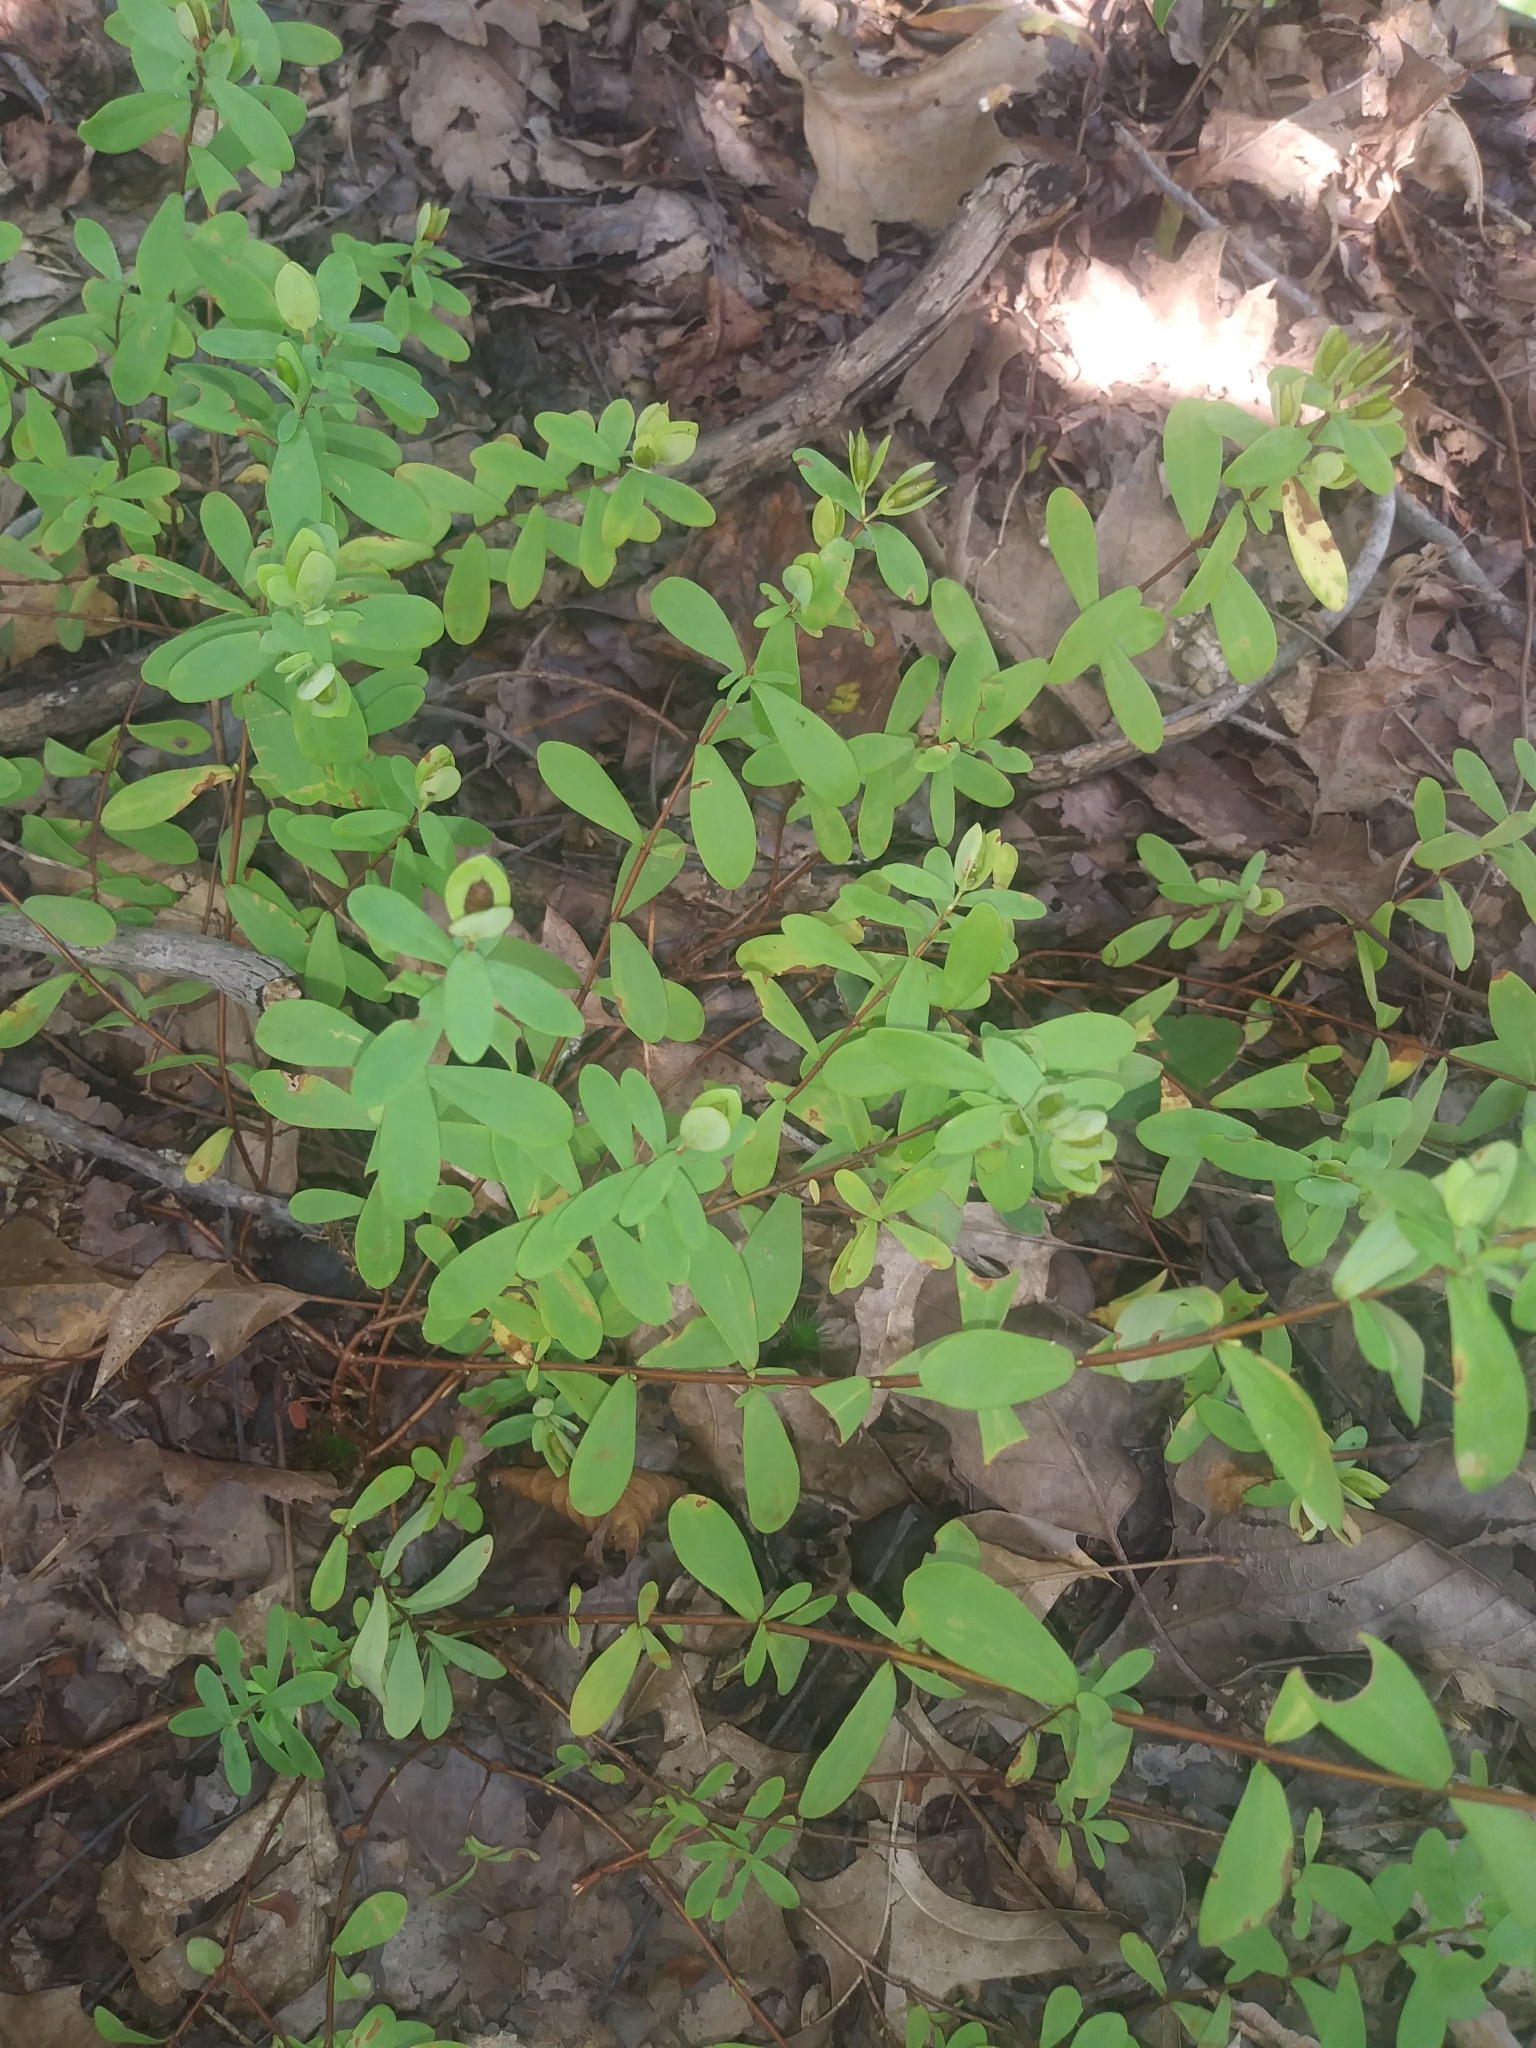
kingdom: Plantae
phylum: Tracheophyta
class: Magnoliopsida
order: Malpighiales
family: Hypericaceae
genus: Hypericum
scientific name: Hypericum hypericoides
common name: St. andrew's cross
